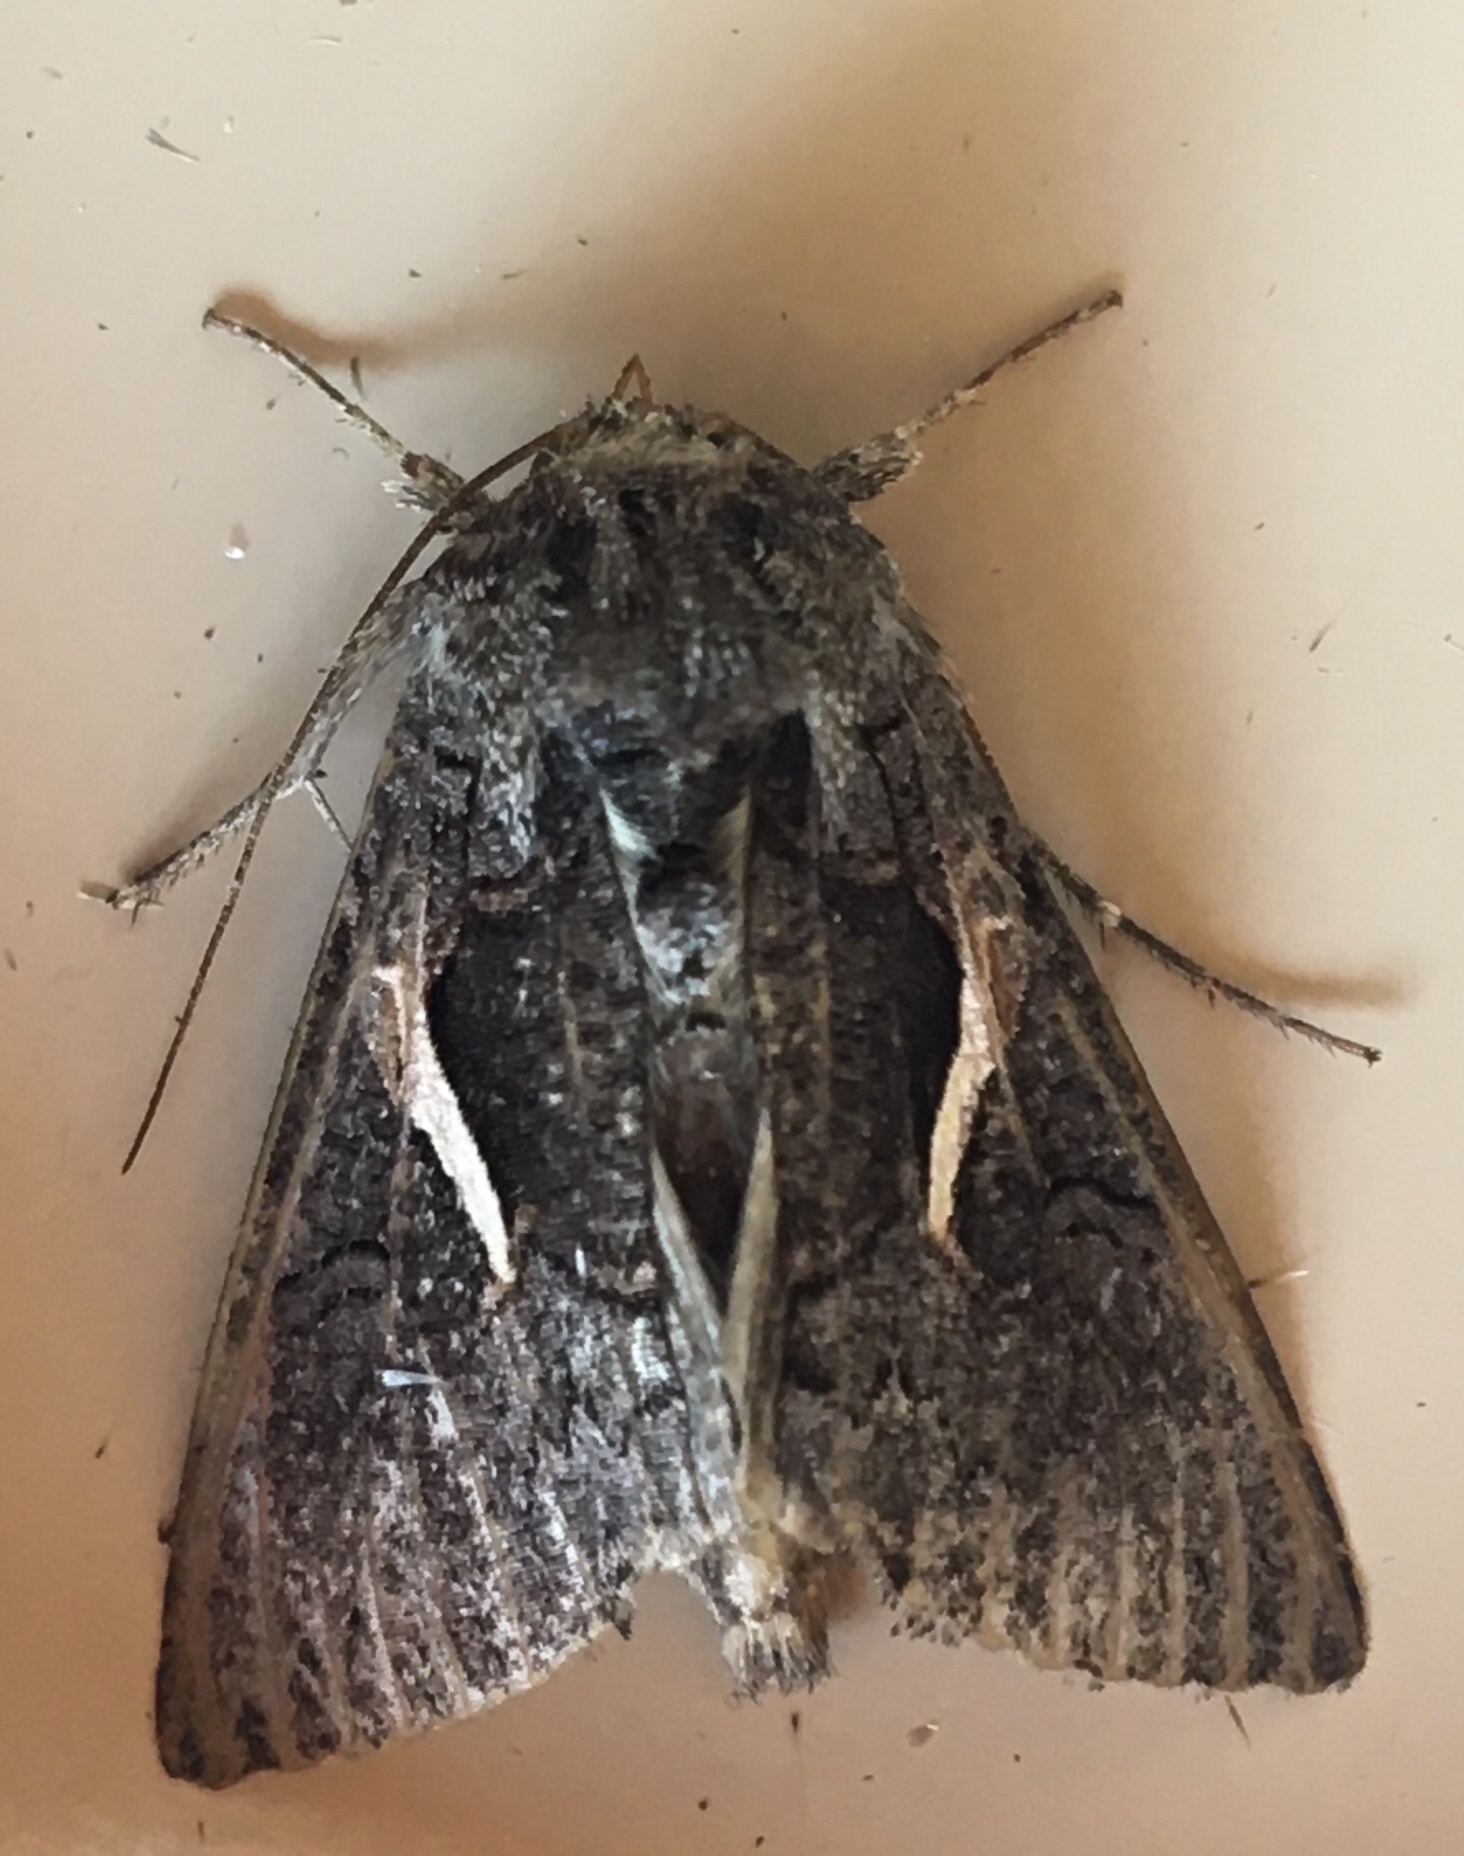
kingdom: Animalia
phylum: Arthropoda
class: Insecta
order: Lepidoptera
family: Noctuidae
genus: Vittaplusia
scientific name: Vittaplusia vittata
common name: Streaked plusia
